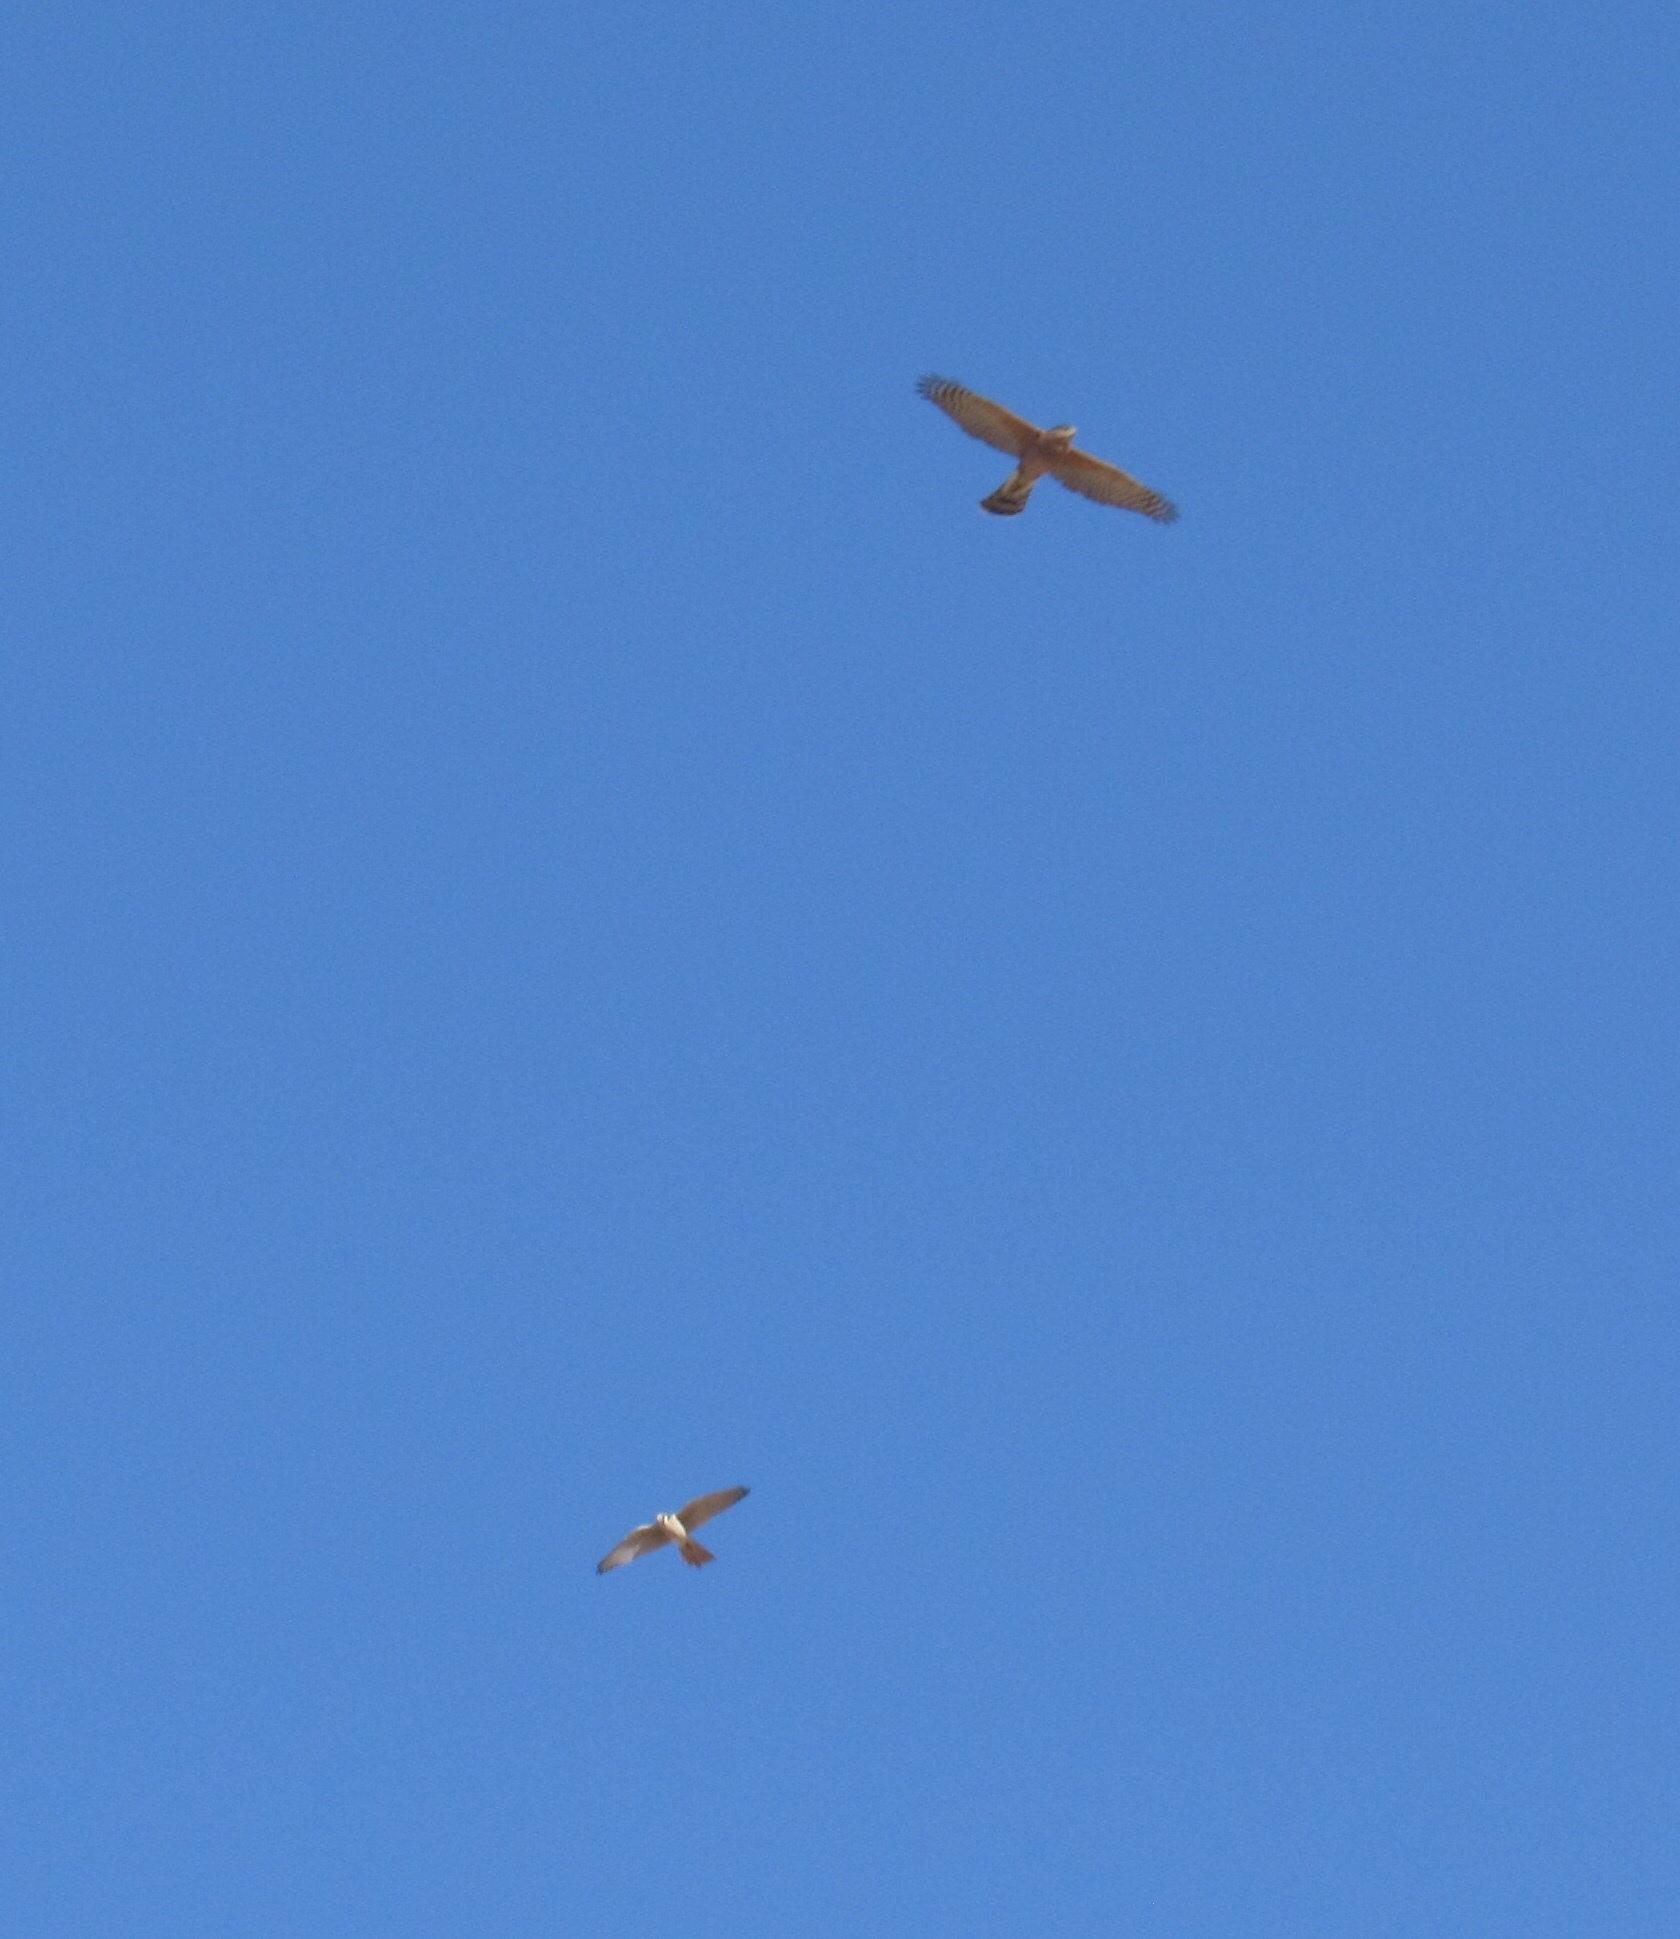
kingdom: Animalia
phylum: Chordata
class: Aves
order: Accipitriformes
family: Accipitridae
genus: Accipiter
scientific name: Accipiter cooperii
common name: Cooper's hawk
